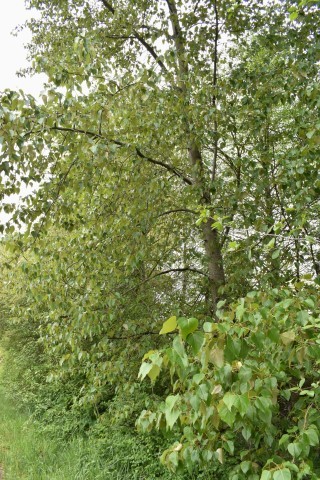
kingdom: Plantae
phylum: Tracheophyta
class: Magnoliopsida
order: Malpighiales
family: Salicaceae
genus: Populus
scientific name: Populus trichocarpa
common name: Black cottonwood
